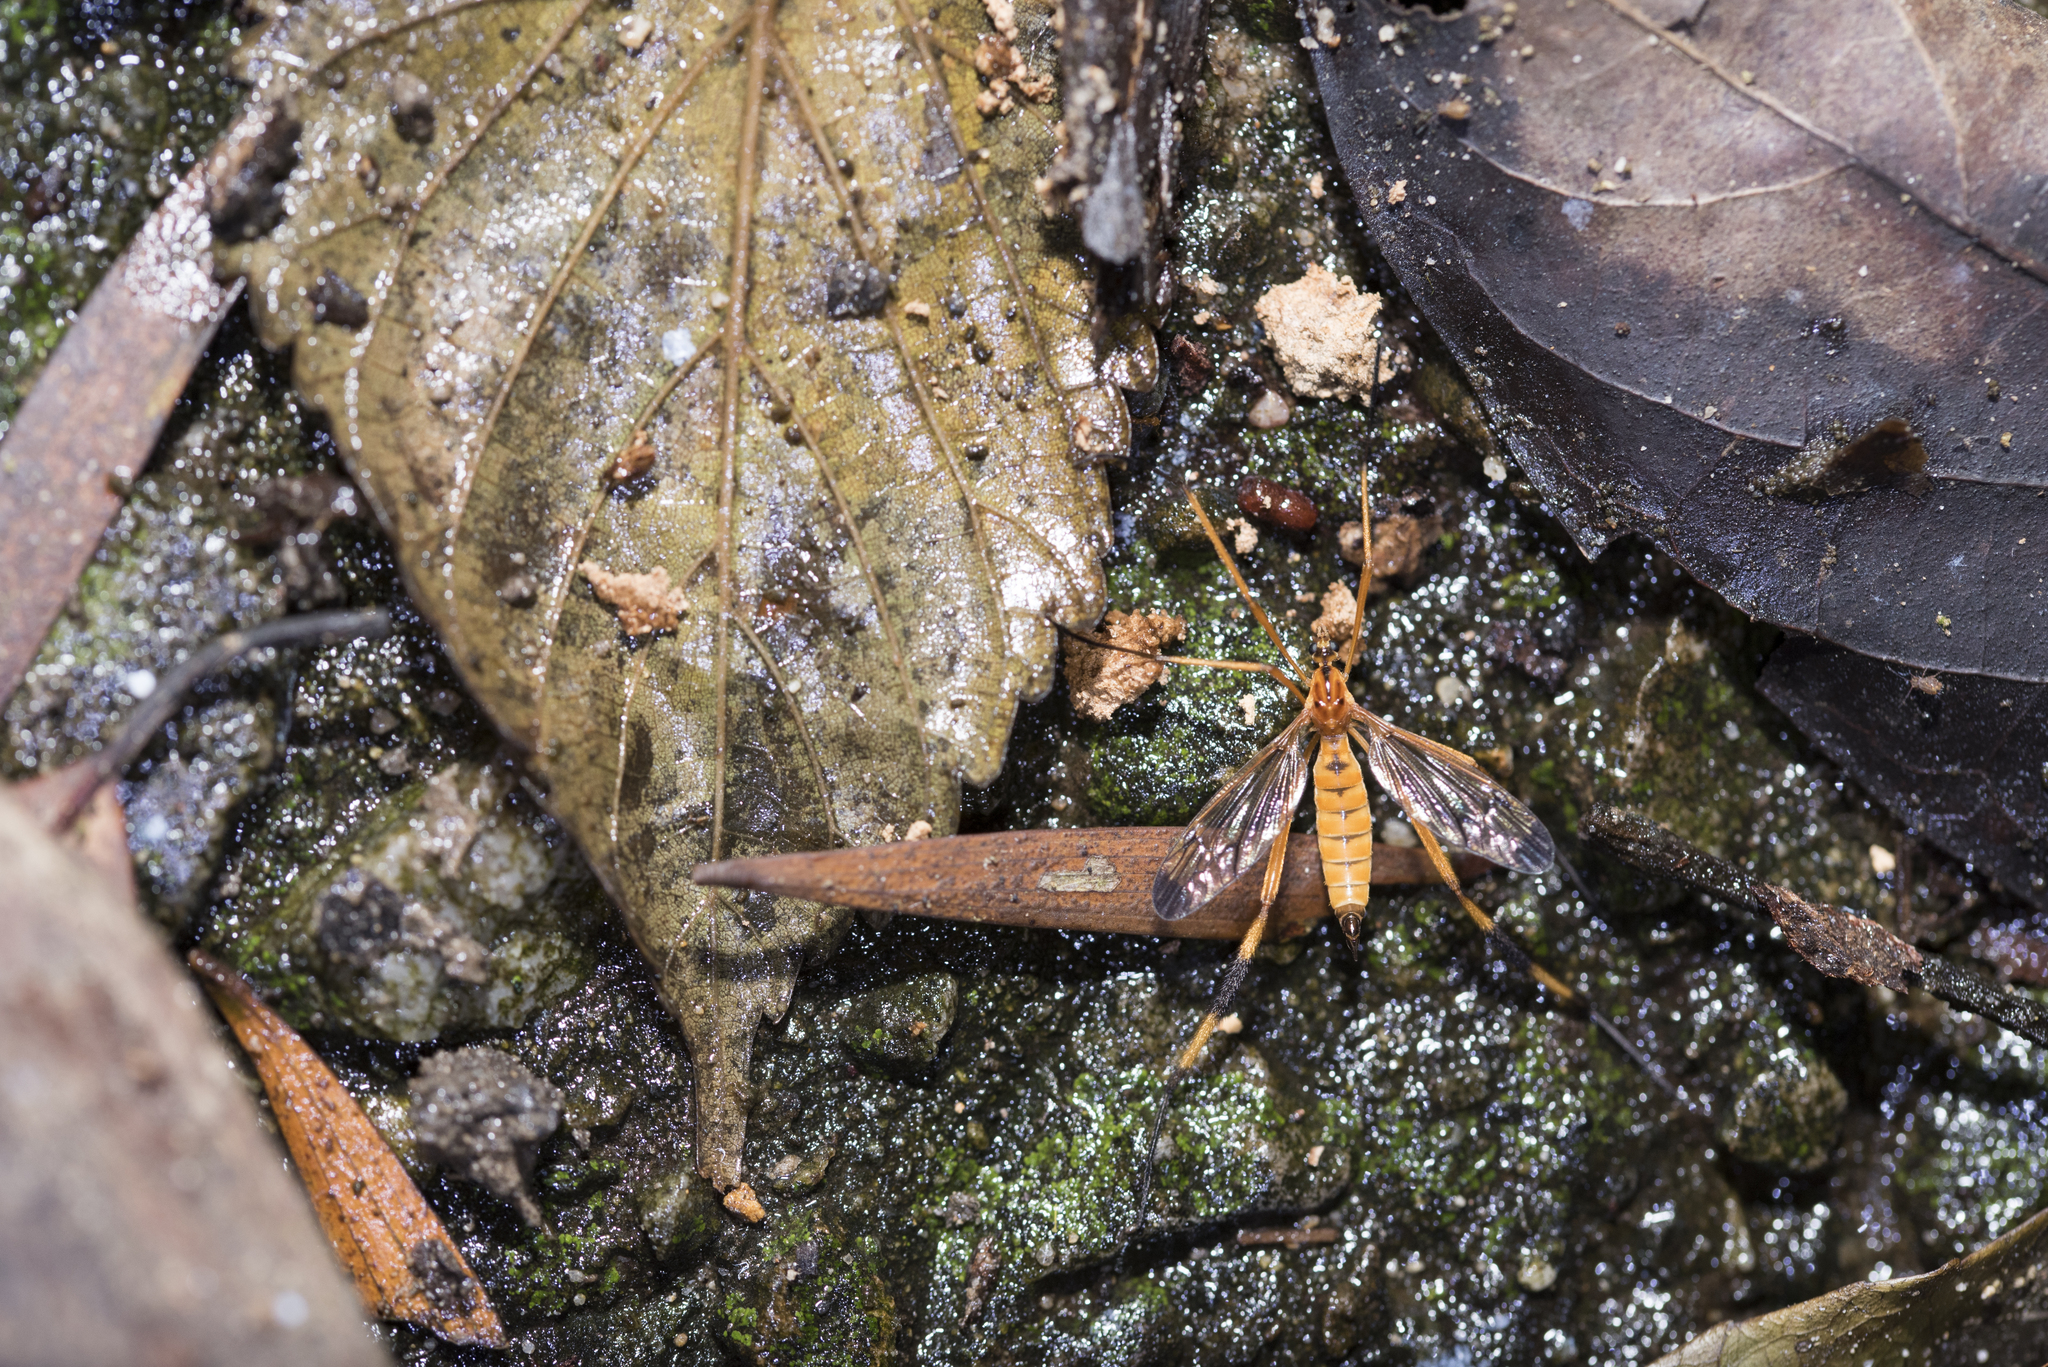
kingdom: Animalia
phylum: Arthropoda
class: Insecta
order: Diptera
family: Tipulidae
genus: Dictenidia
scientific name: Dictenidia formosana
